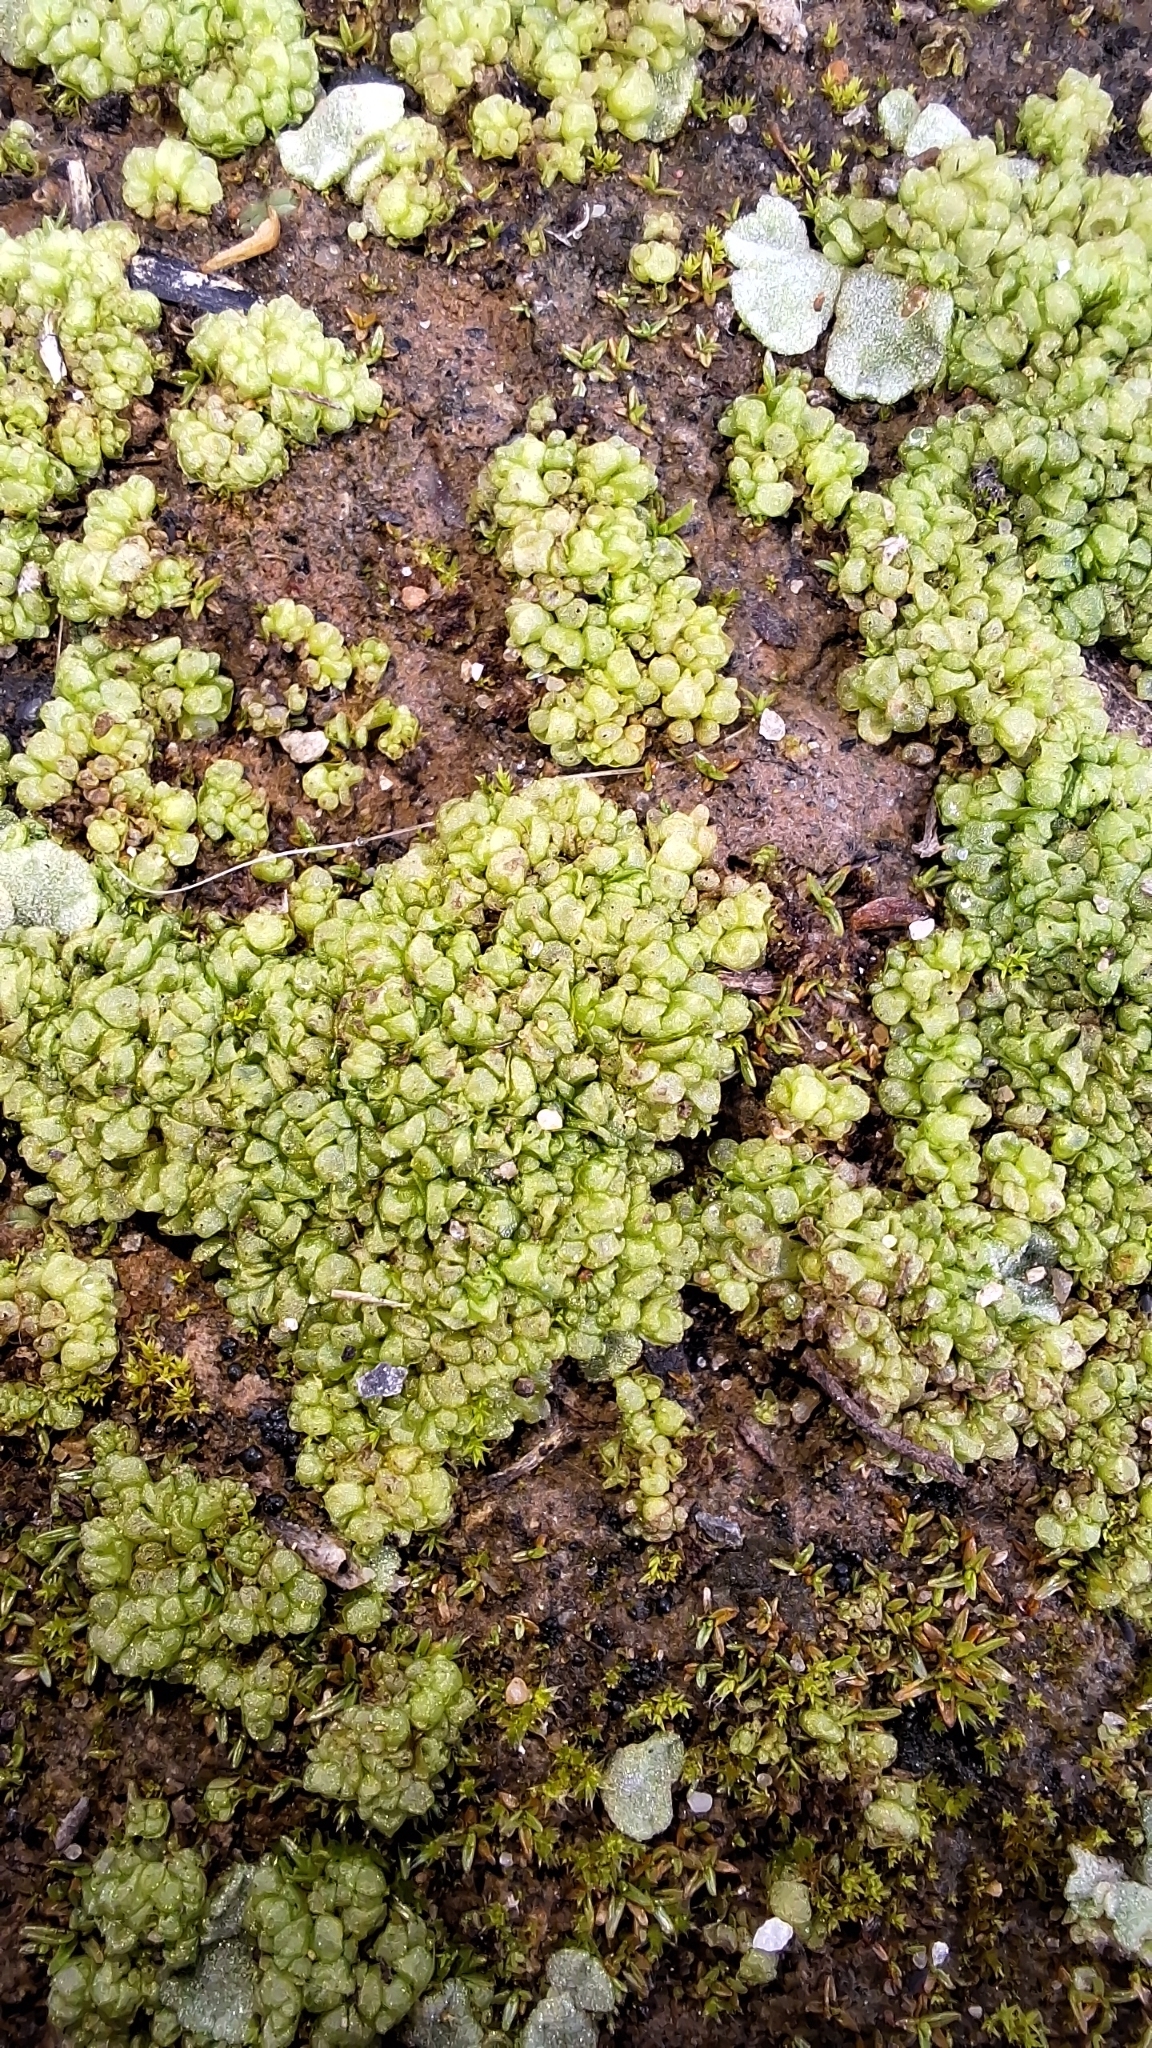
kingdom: Plantae
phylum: Marchantiophyta
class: Marchantiopsida
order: Sphaerocarpales
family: Sphaerocarpaceae
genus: Sphaerocarpos
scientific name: Sphaerocarpos texanus
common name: Texas balloonwort
